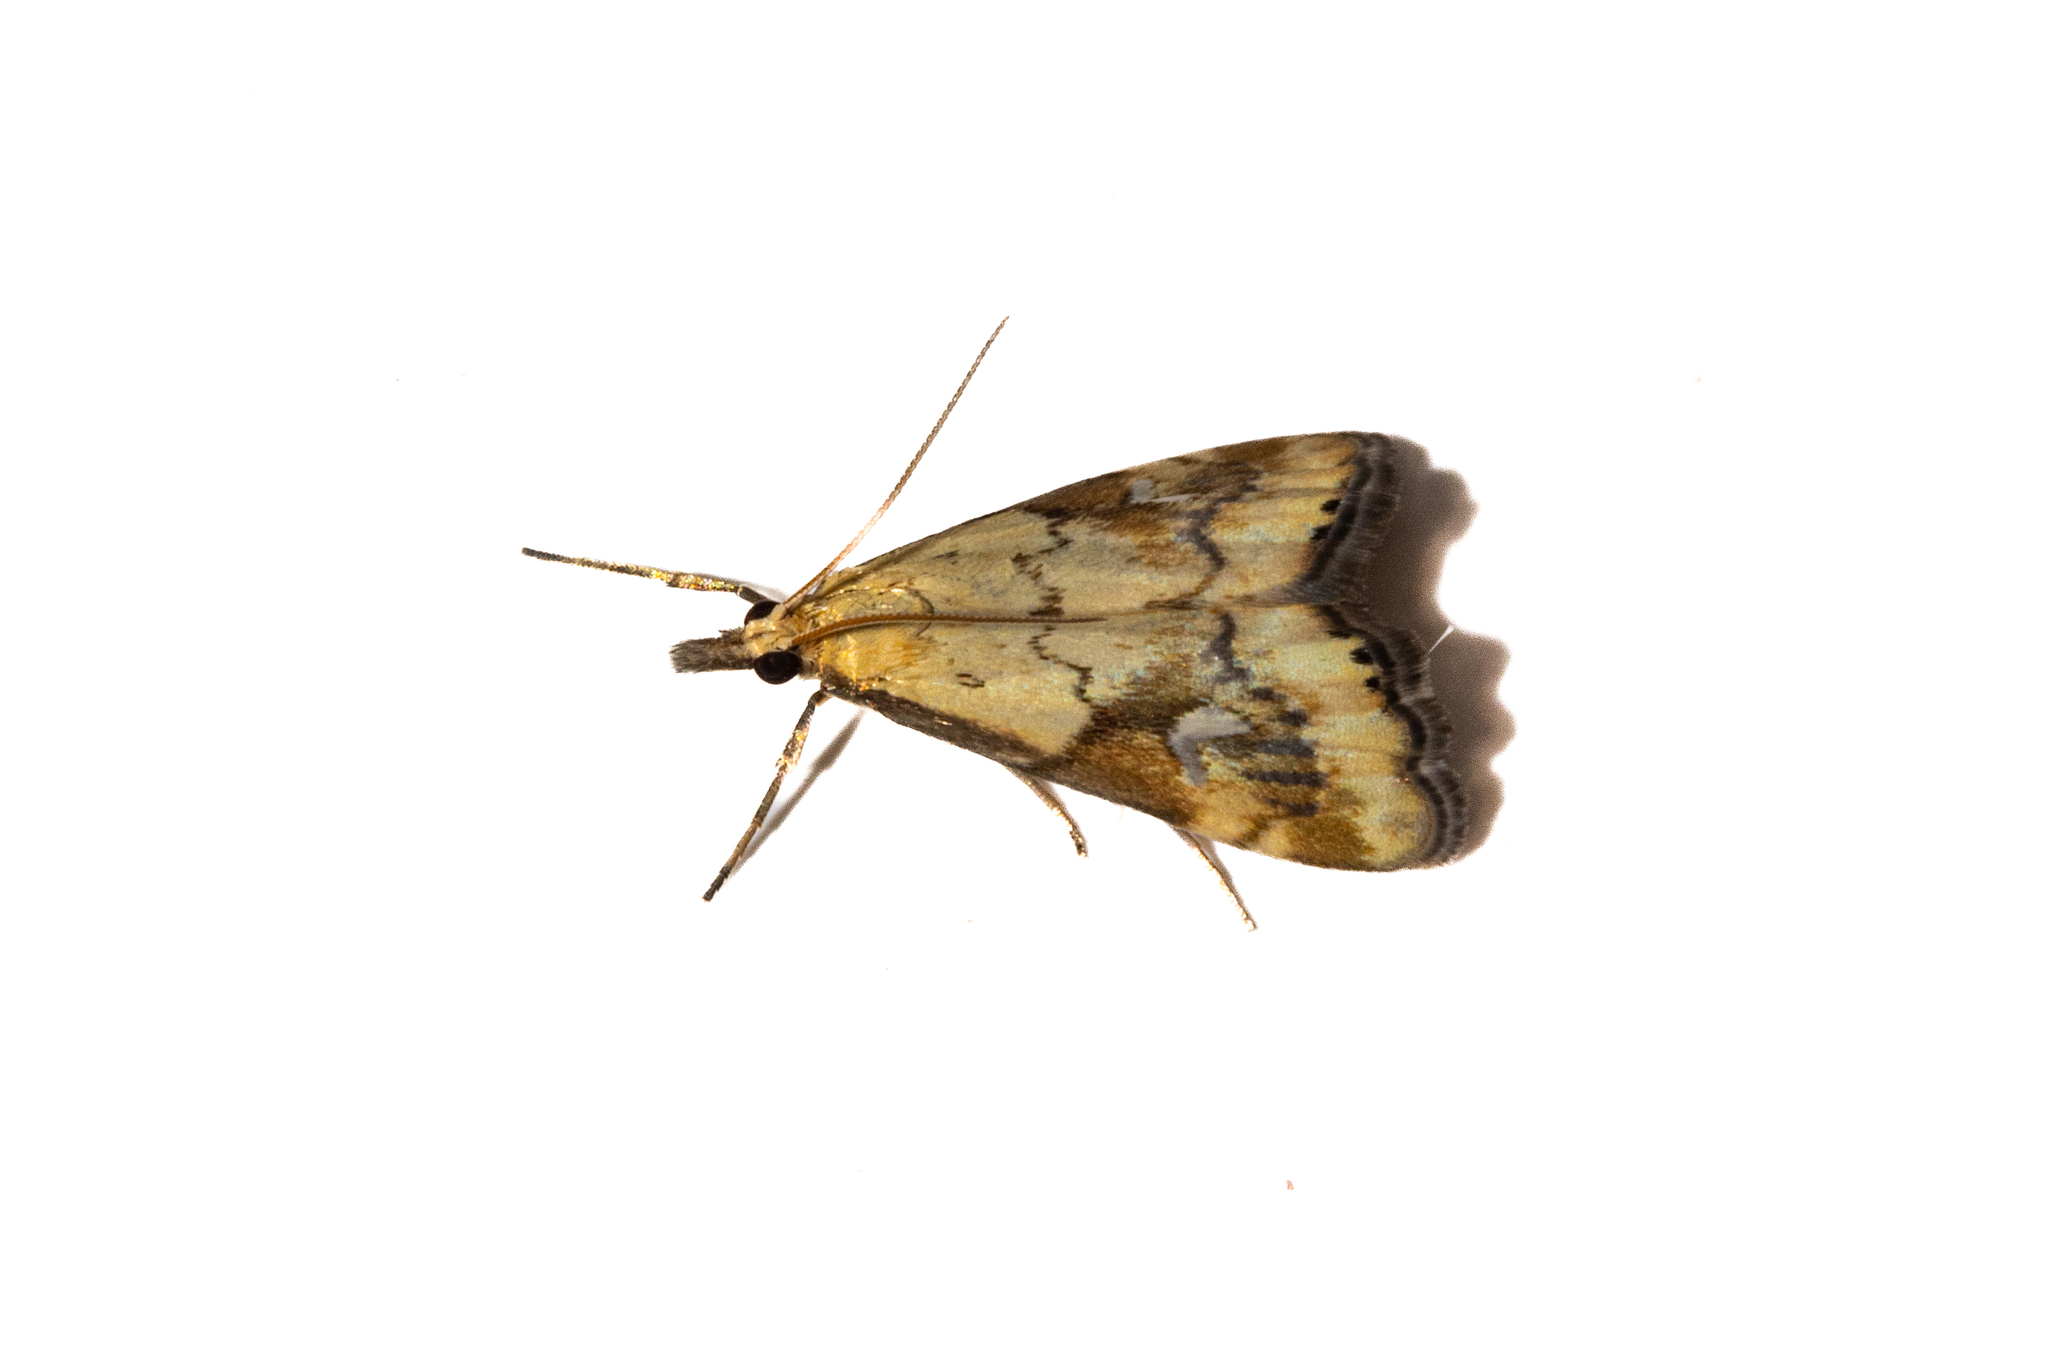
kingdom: Animalia
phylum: Arthropoda
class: Insecta
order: Lepidoptera
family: Crambidae
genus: Glaucocharis
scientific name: Glaucocharis lepidella
